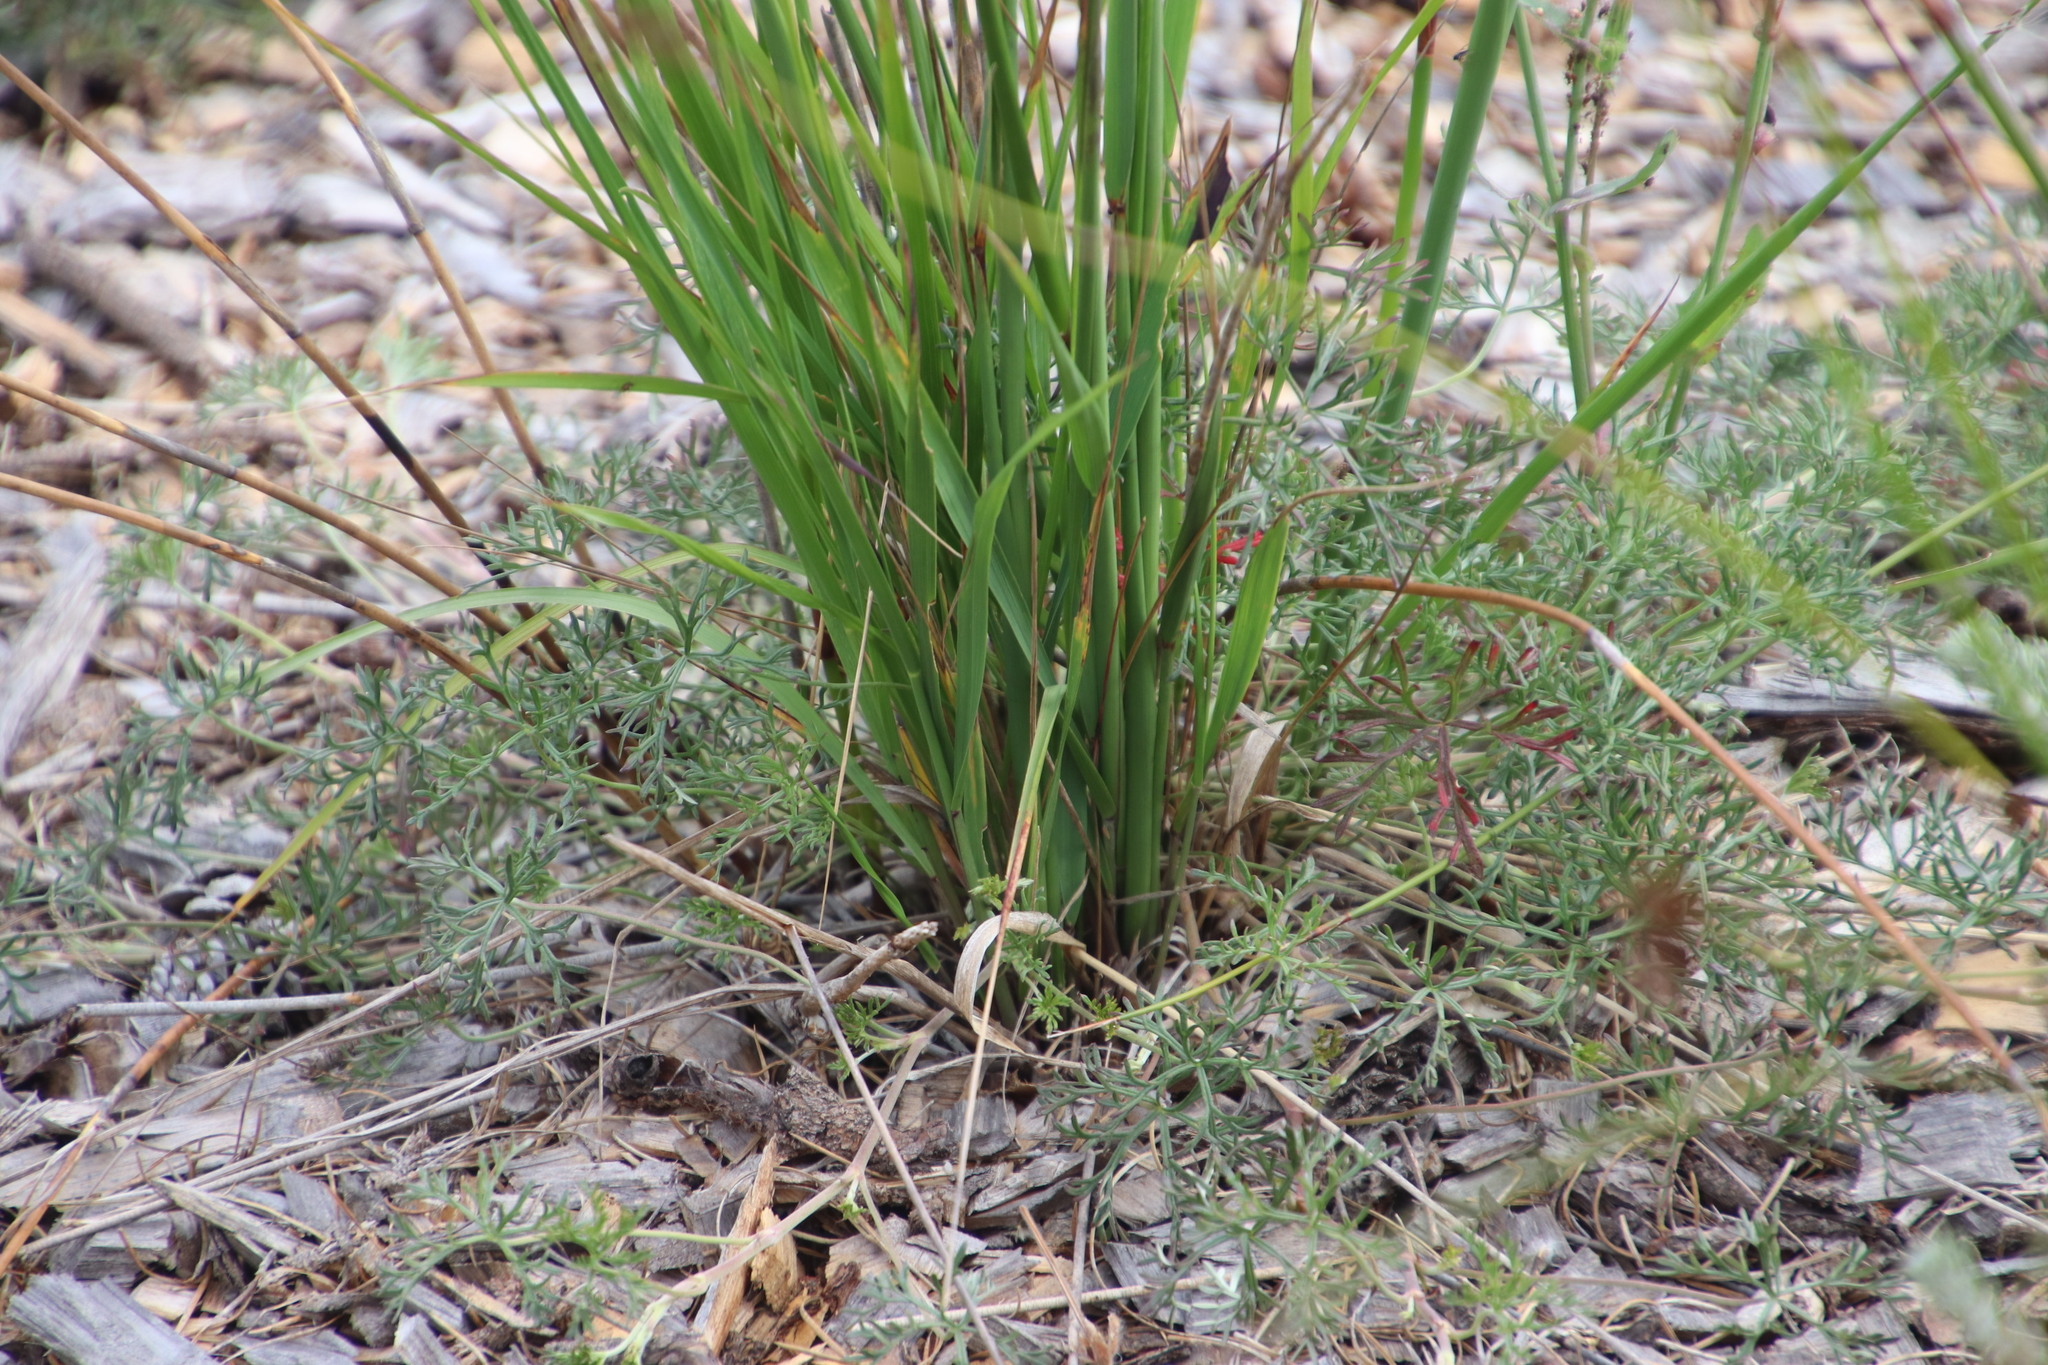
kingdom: Plantae
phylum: Tracheophyta
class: Liliopsida
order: Poales
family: Poaceae
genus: Cortaderia
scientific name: Cortaderia selloana
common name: Uruguayan pampas grass
